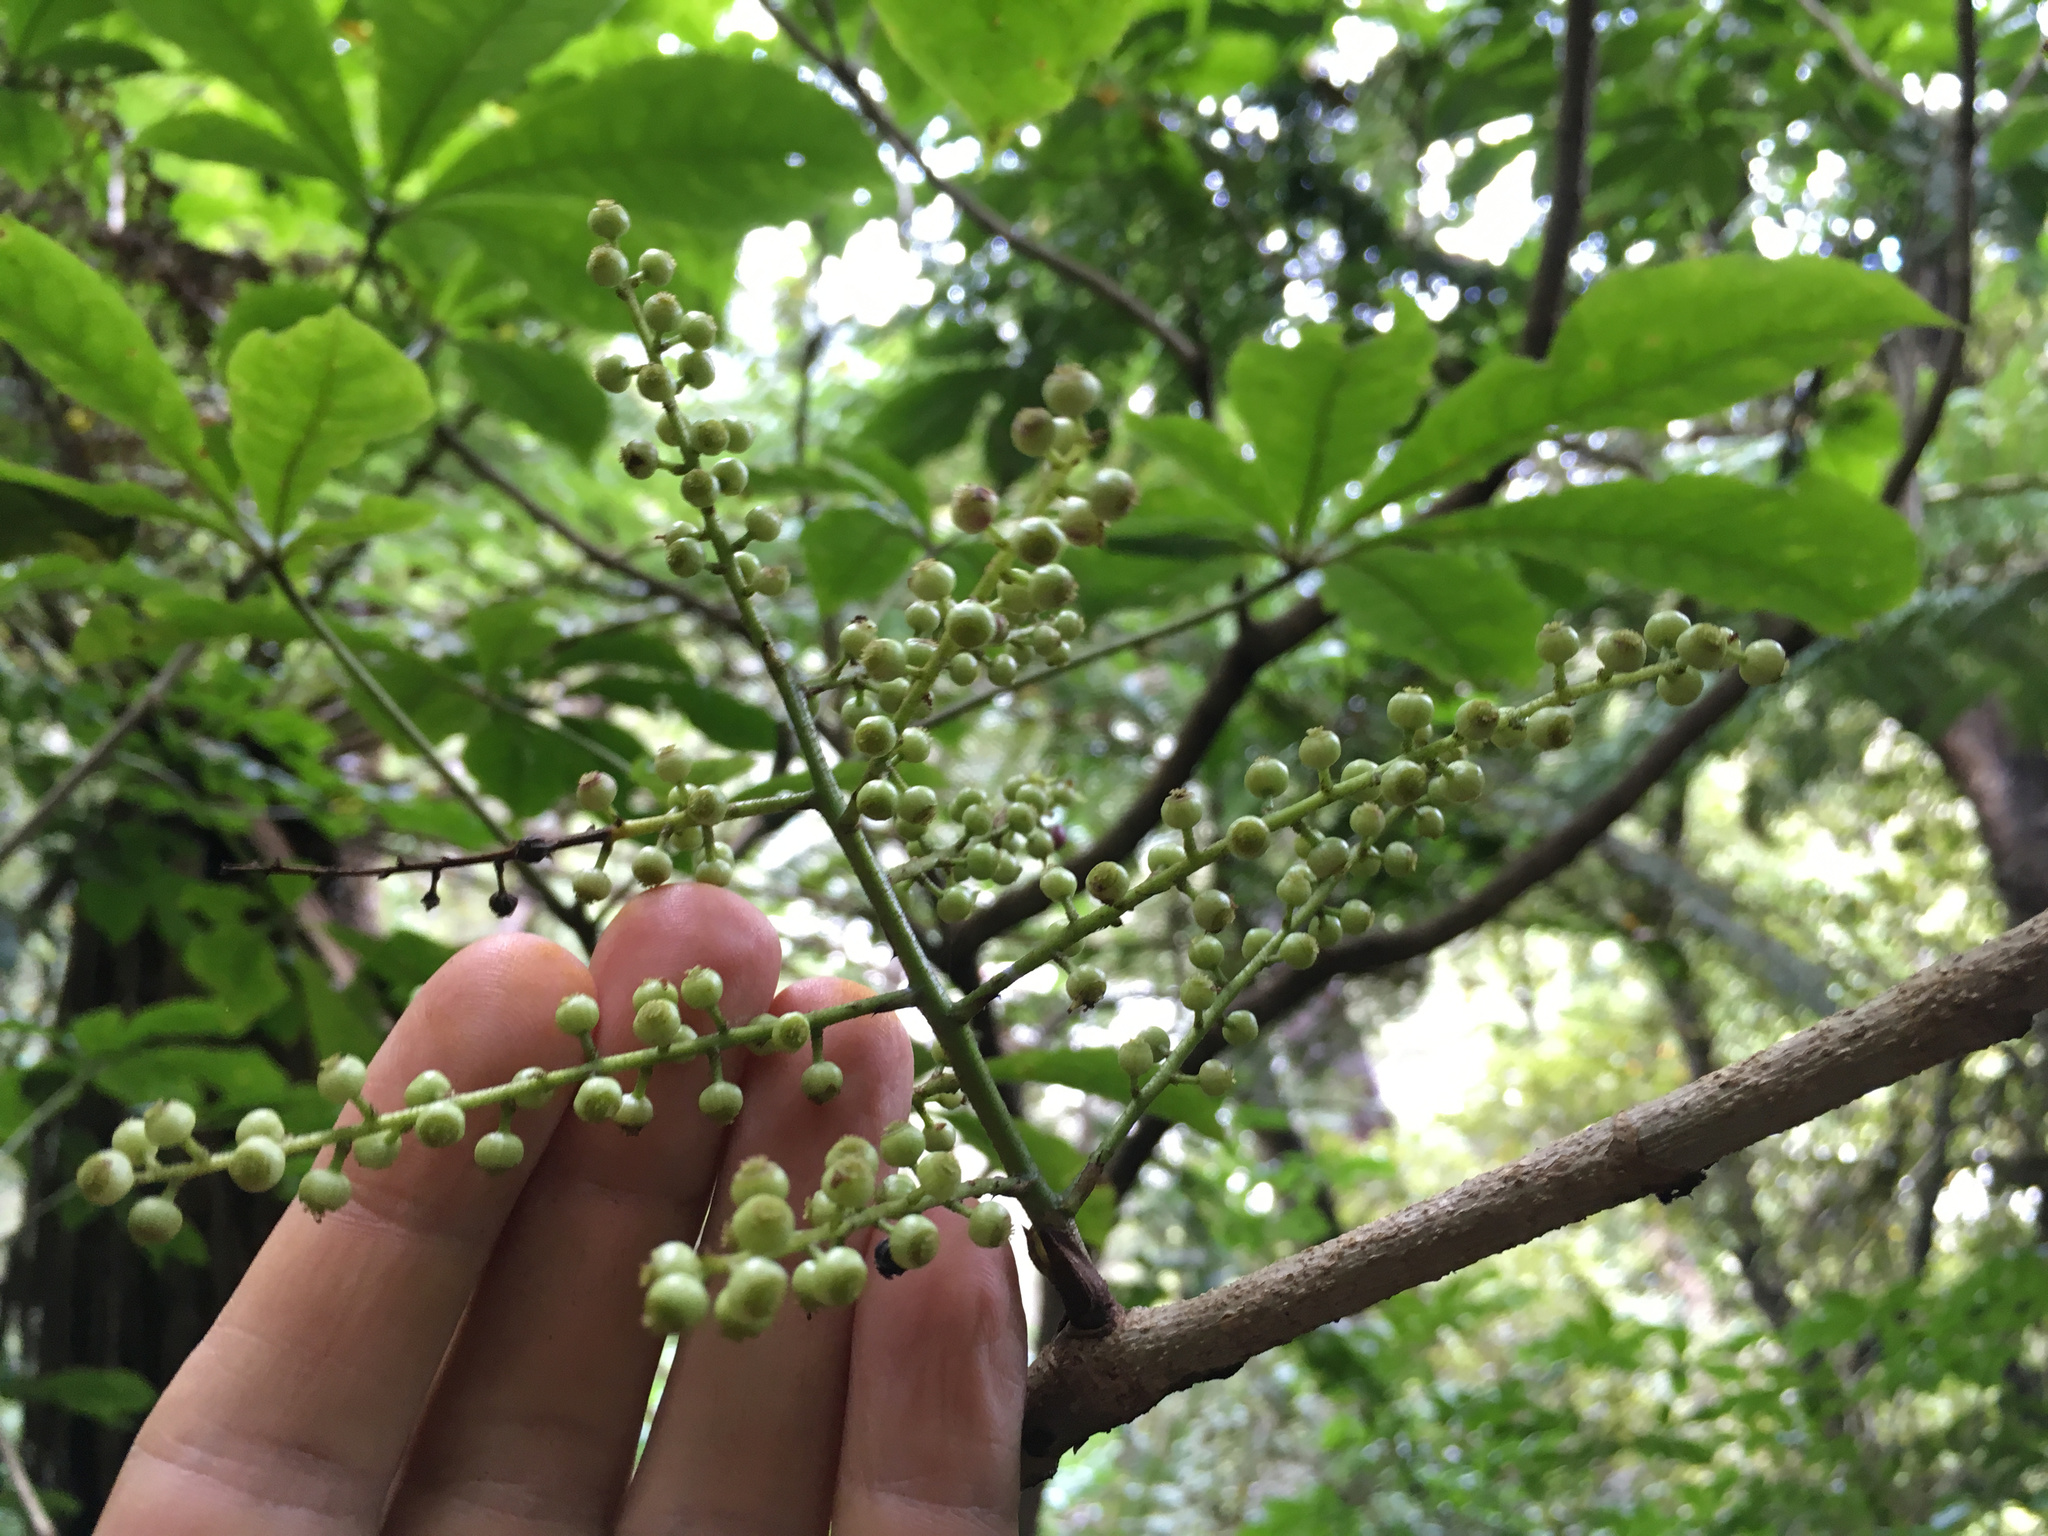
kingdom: Plantae
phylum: Tracheophyta
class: Magnoliopsida
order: Apiales
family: Araliaceae
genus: Schefflera
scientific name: Schefflera digitata
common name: Pate
